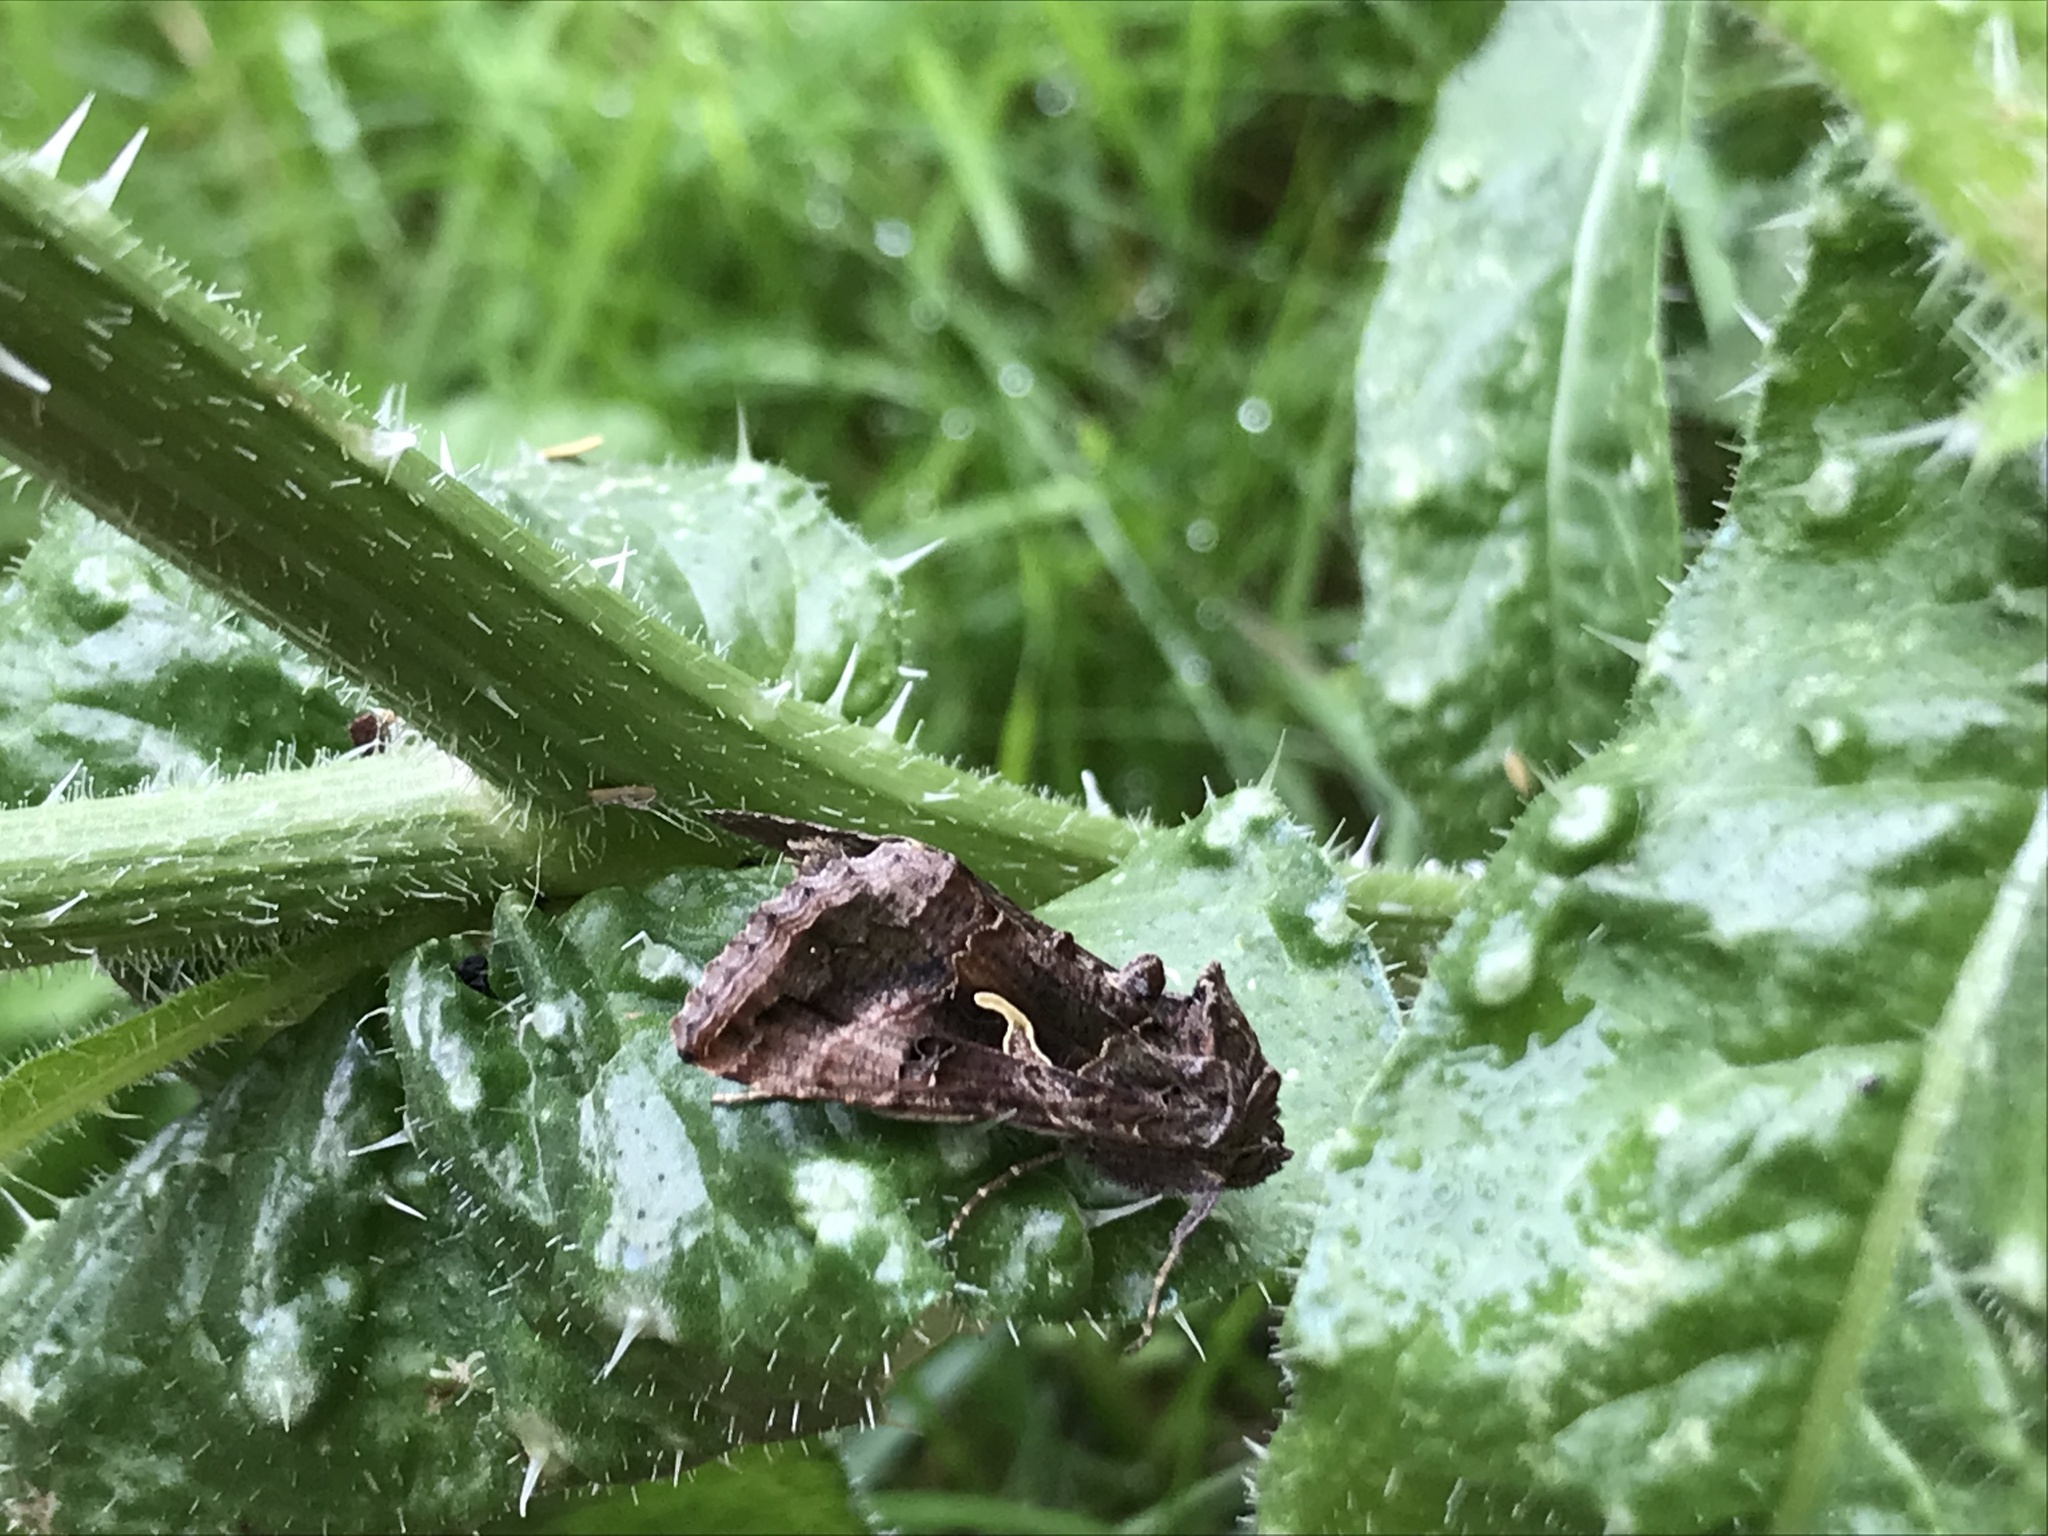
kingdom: Animalia
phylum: Arthropoda
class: Insecta
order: Lepidoptera
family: Noctuidae
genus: Autographa
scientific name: Autographa gamma
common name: Silver y
